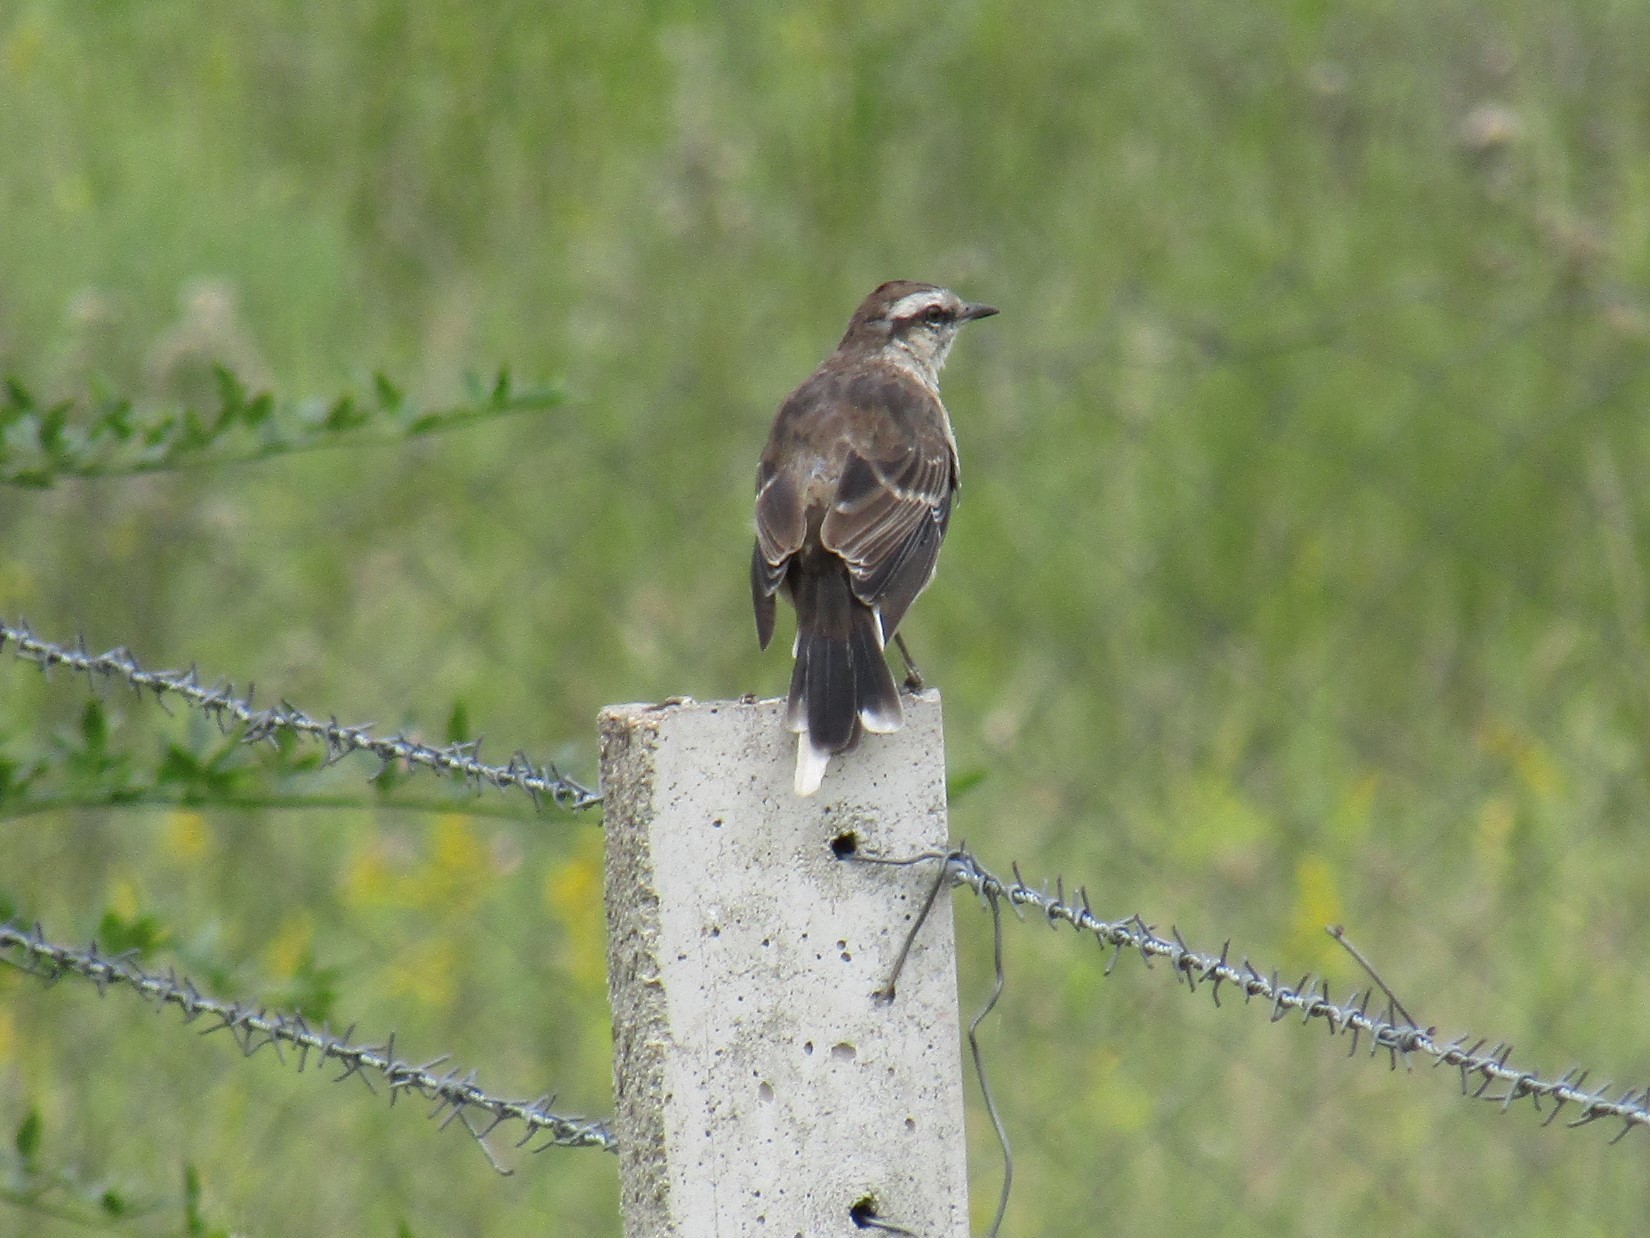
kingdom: Animalia
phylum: Chordata
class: Aves
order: Passeriformes
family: Mimidae
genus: Mimus
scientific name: Mimus saturninus
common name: Chalk-browed mockingbird
